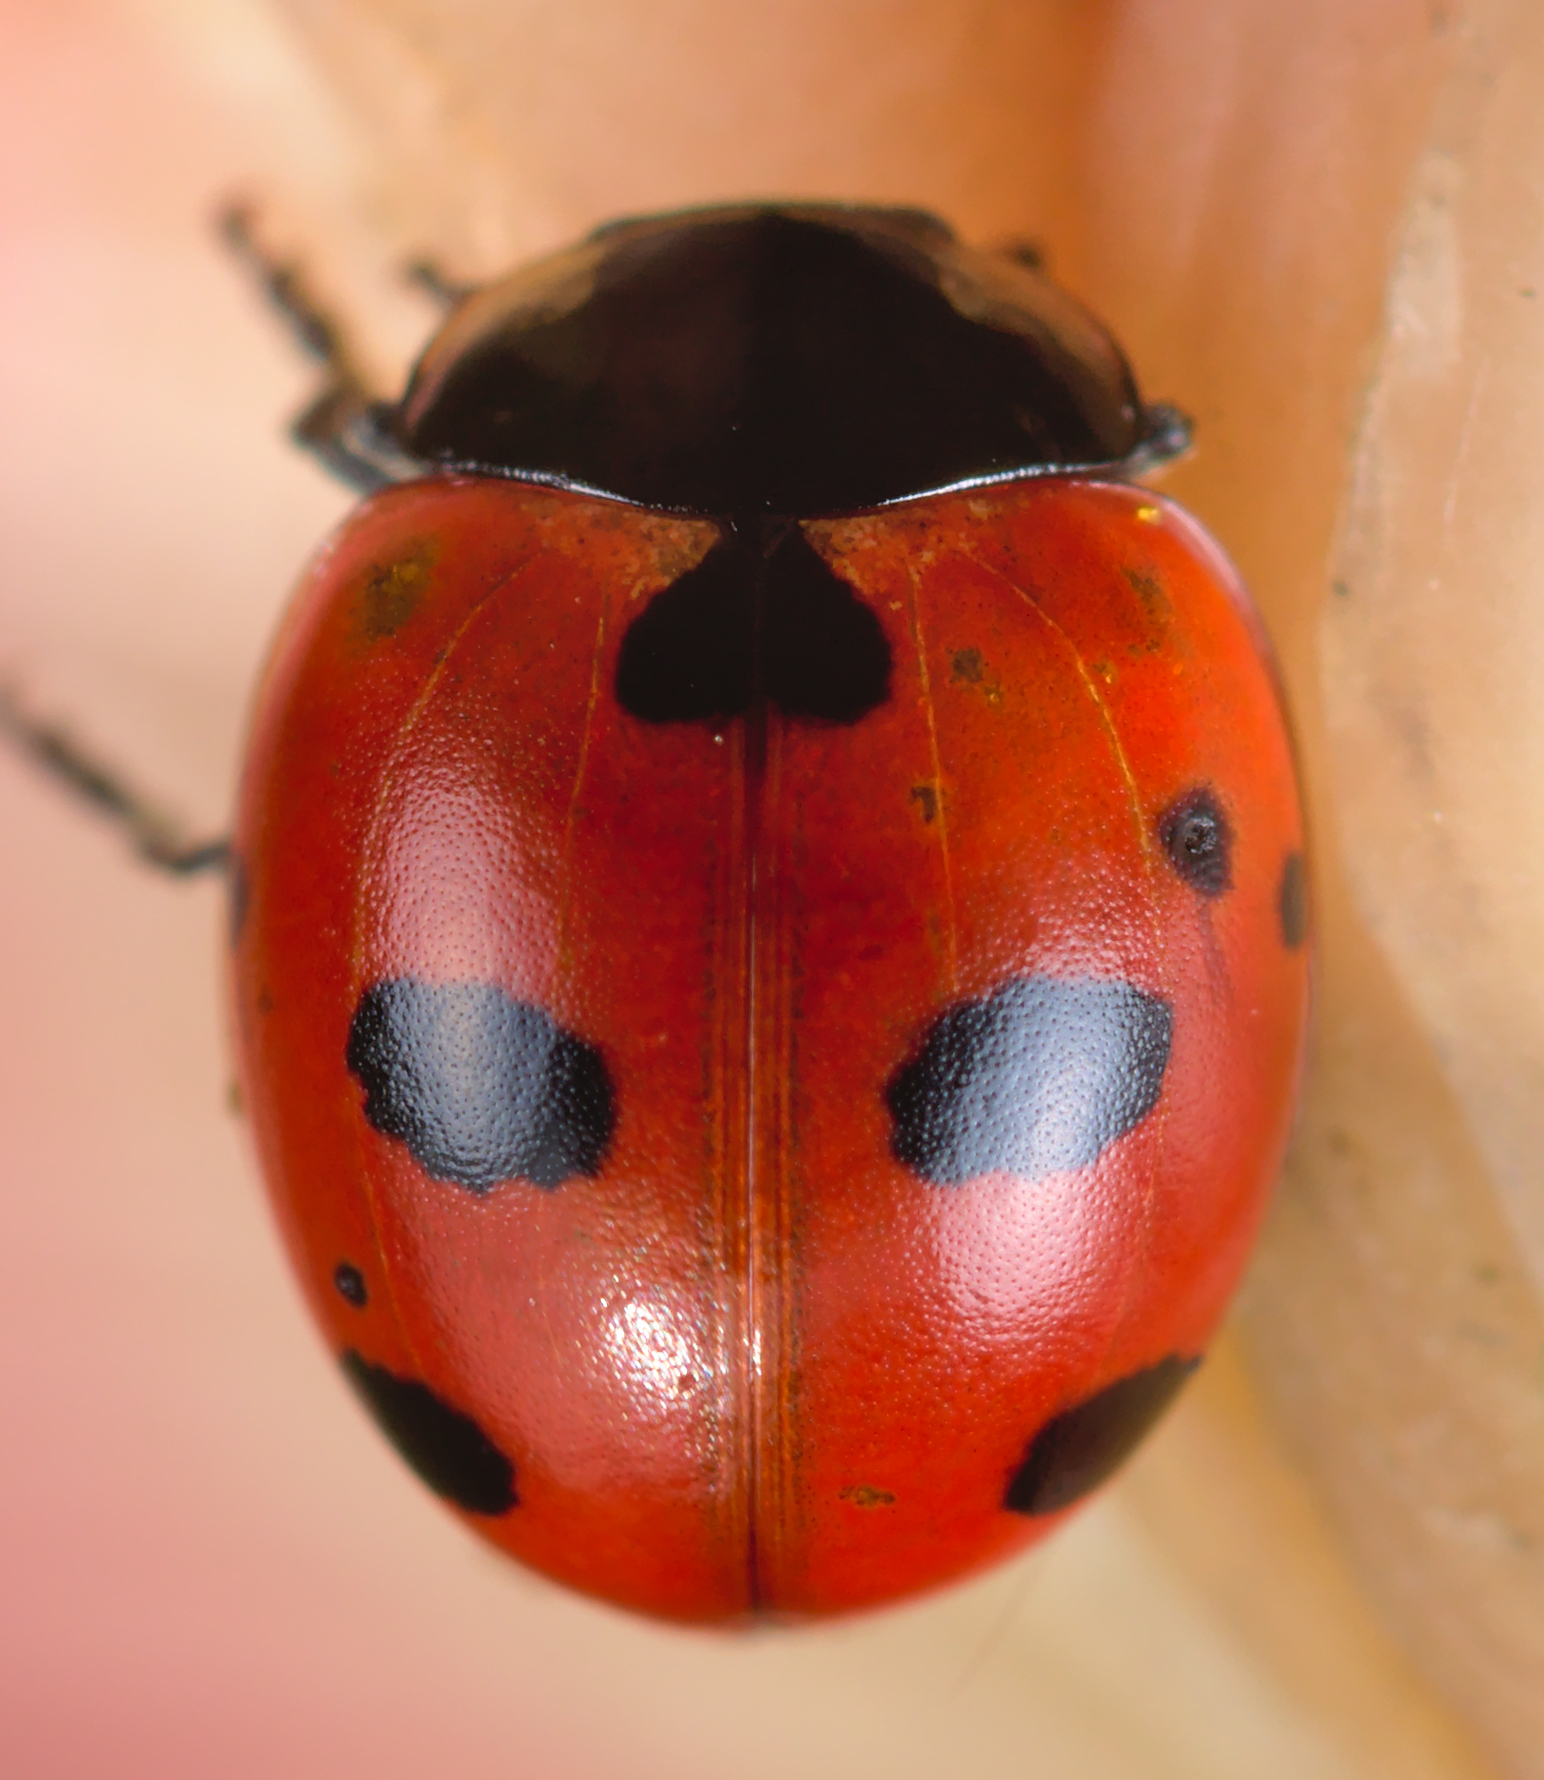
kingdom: Animalia
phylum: Arthropoda
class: Insecta
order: Coleoptera
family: Coccinellidae
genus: Coccinella
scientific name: Coccinella magnifica
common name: Scarce 7-spot ladybird
